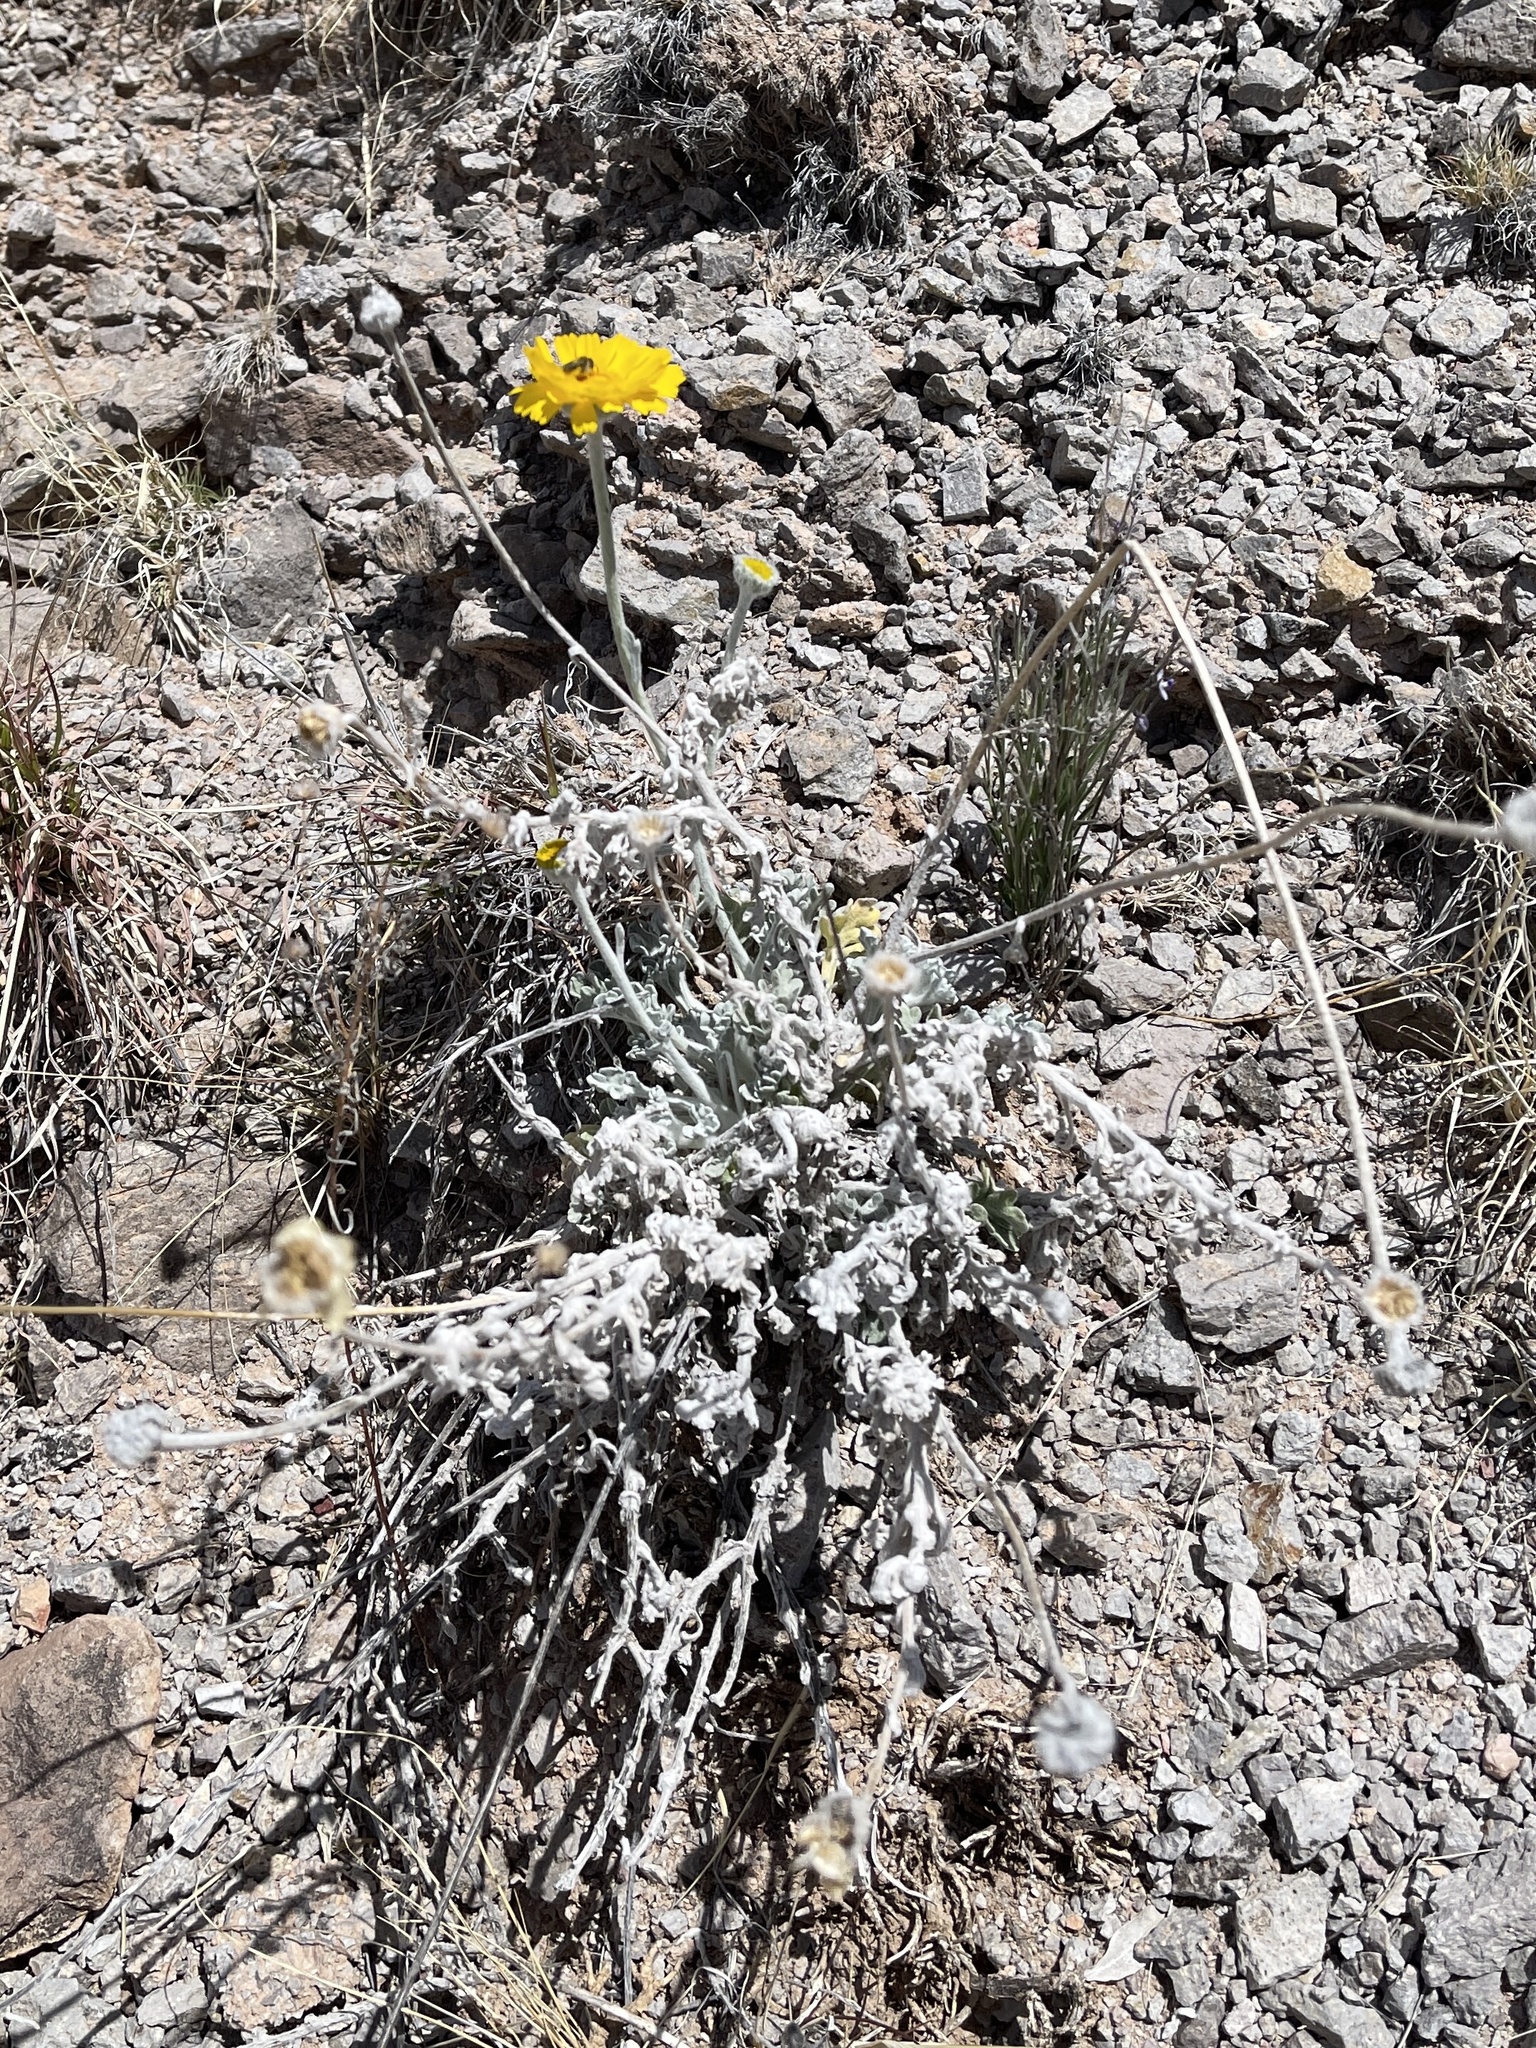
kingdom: Plantae
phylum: Tracheophyta
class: Magnoliopsida
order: Asterales
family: Asteraceae
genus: Baileya
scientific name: Baileya multiradiata
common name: Desert-marigold
